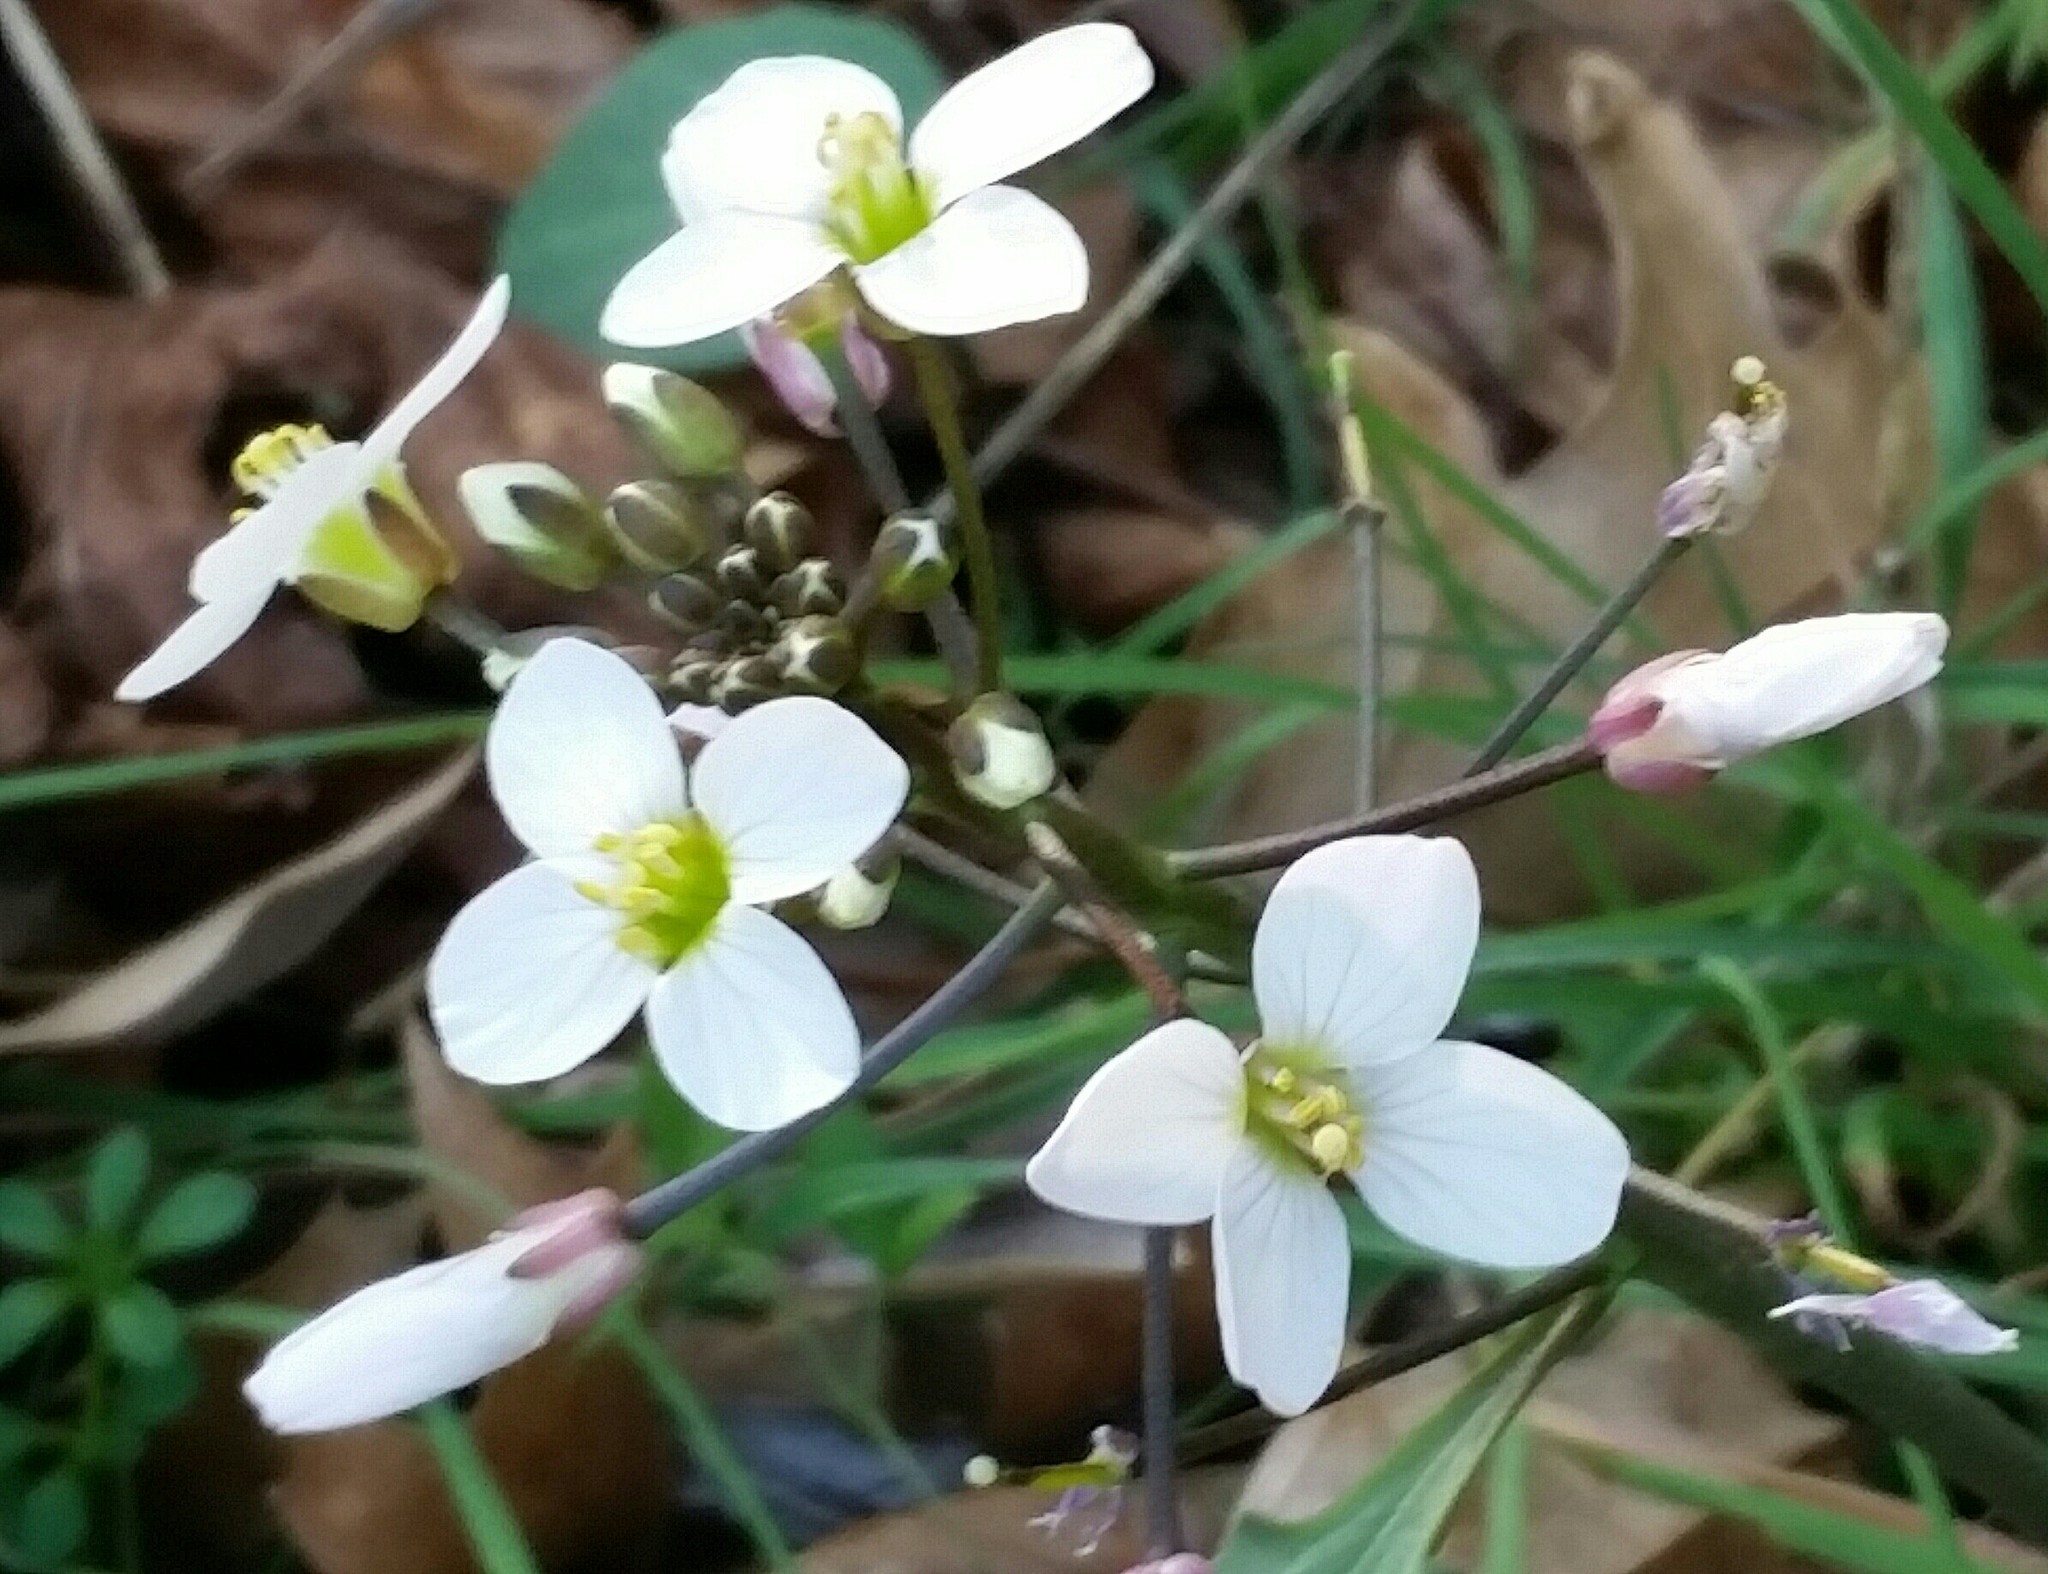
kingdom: Plantae
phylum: Tracheophyta
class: Magnoliopsida
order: Brassicales
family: Brassicaceae
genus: Cardamine
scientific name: Cardamine californica
